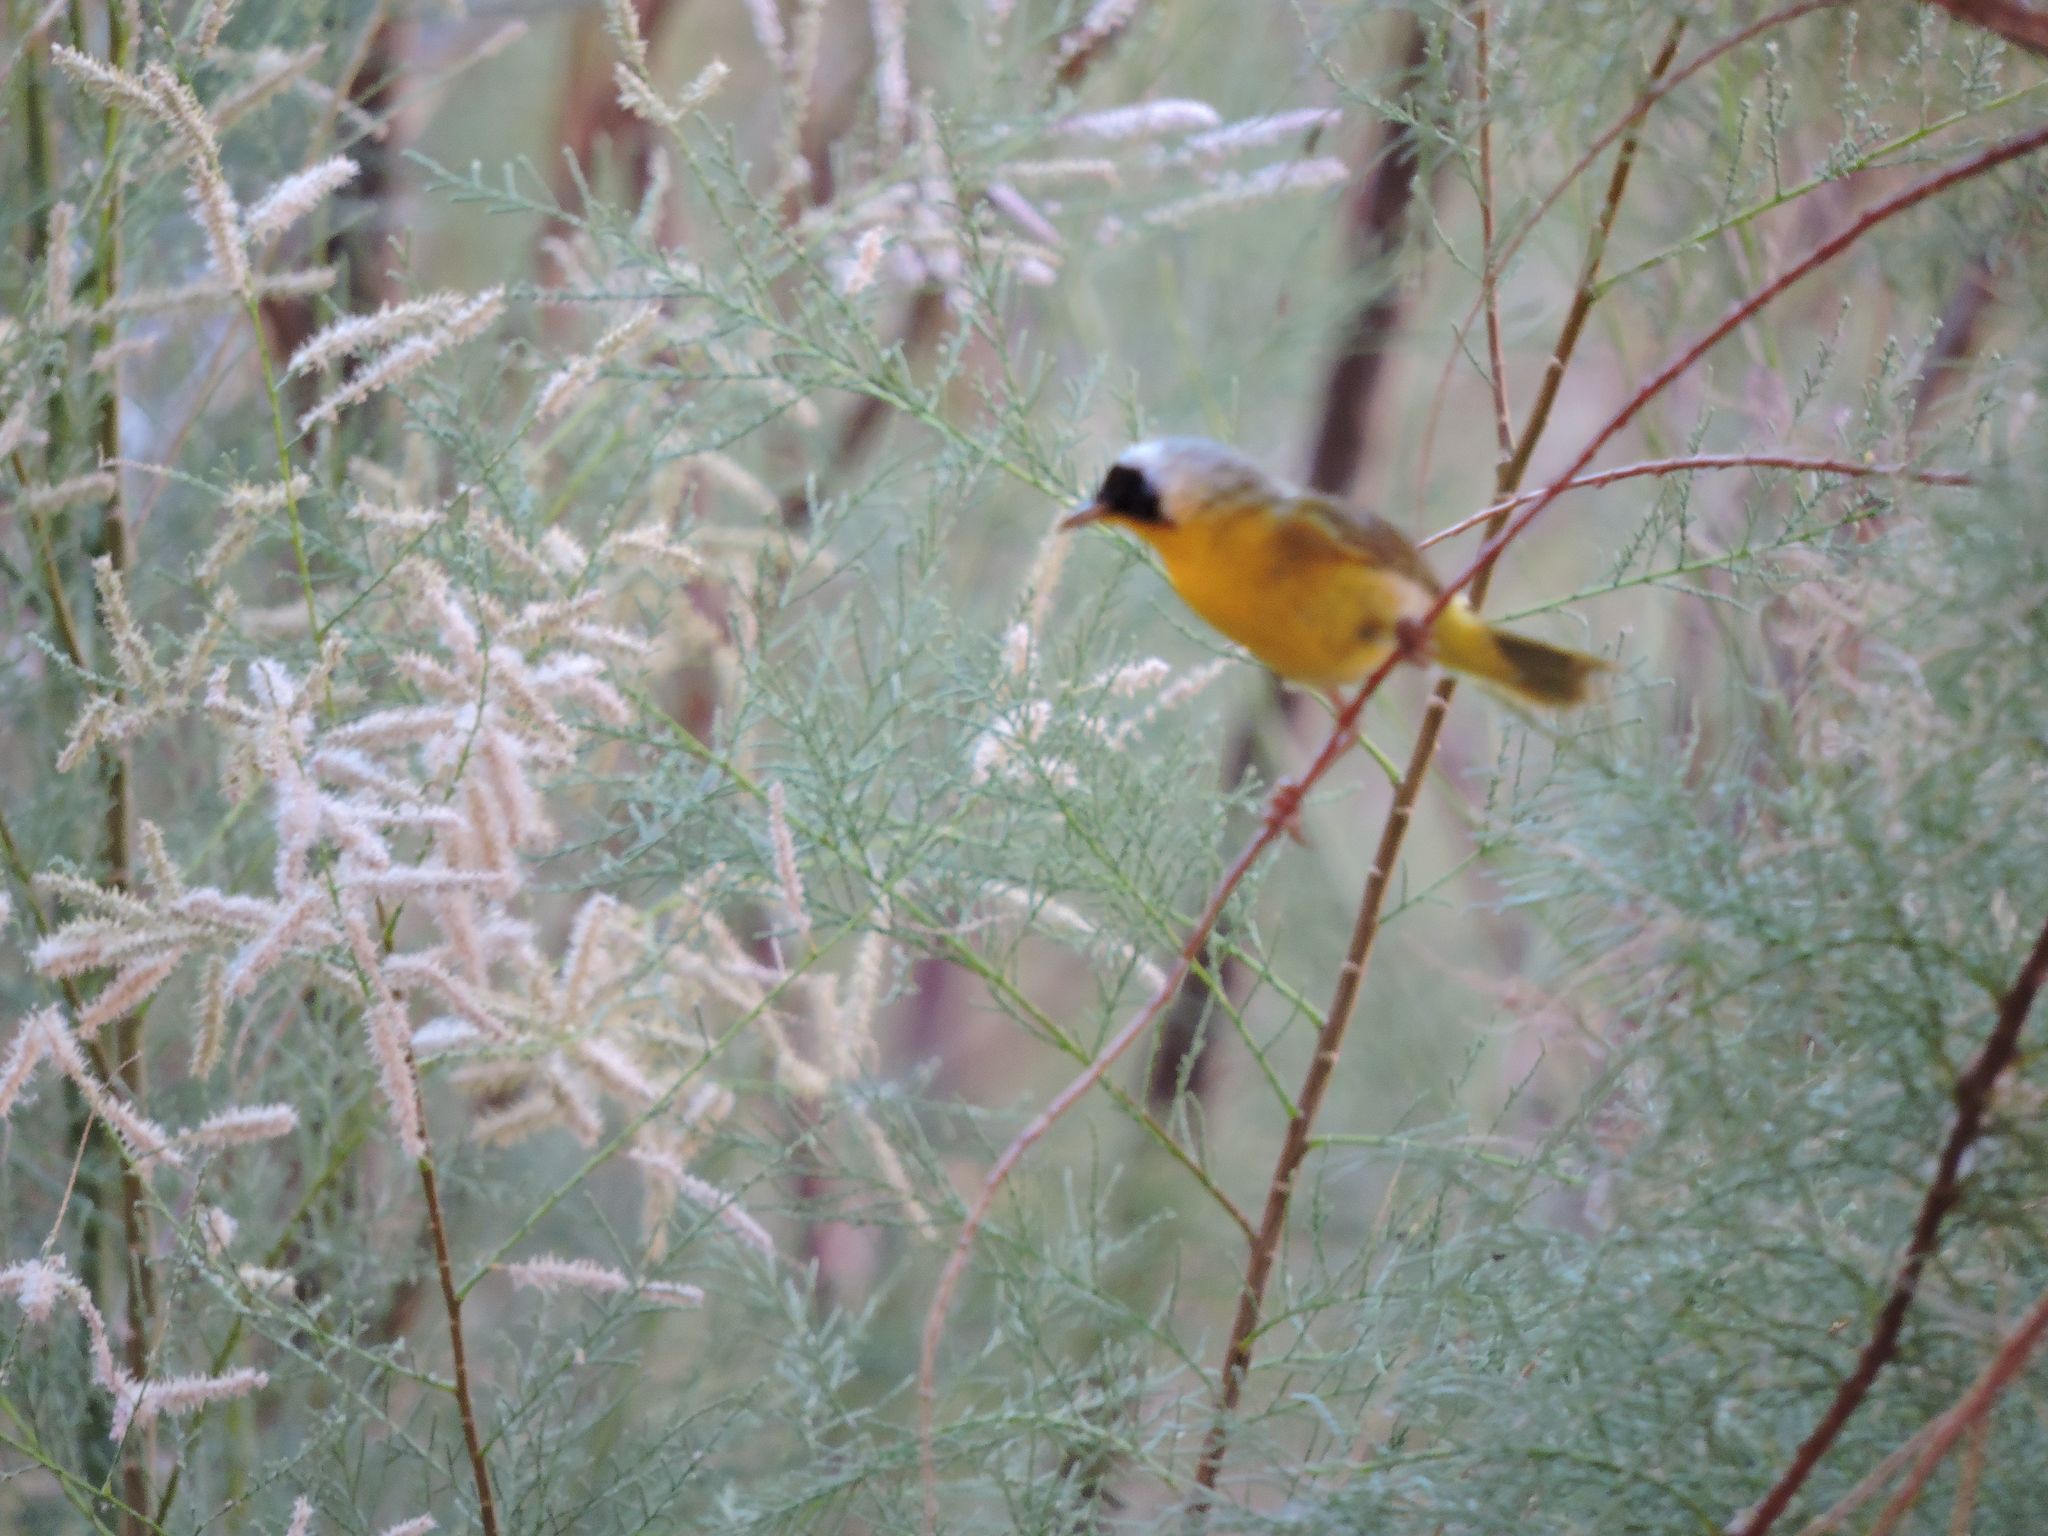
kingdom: Plantae
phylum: Tracheophyta
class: Magnoliopsida
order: Caryophyllales
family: Tamaricaceae
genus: Tamarix
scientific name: Tamarix
